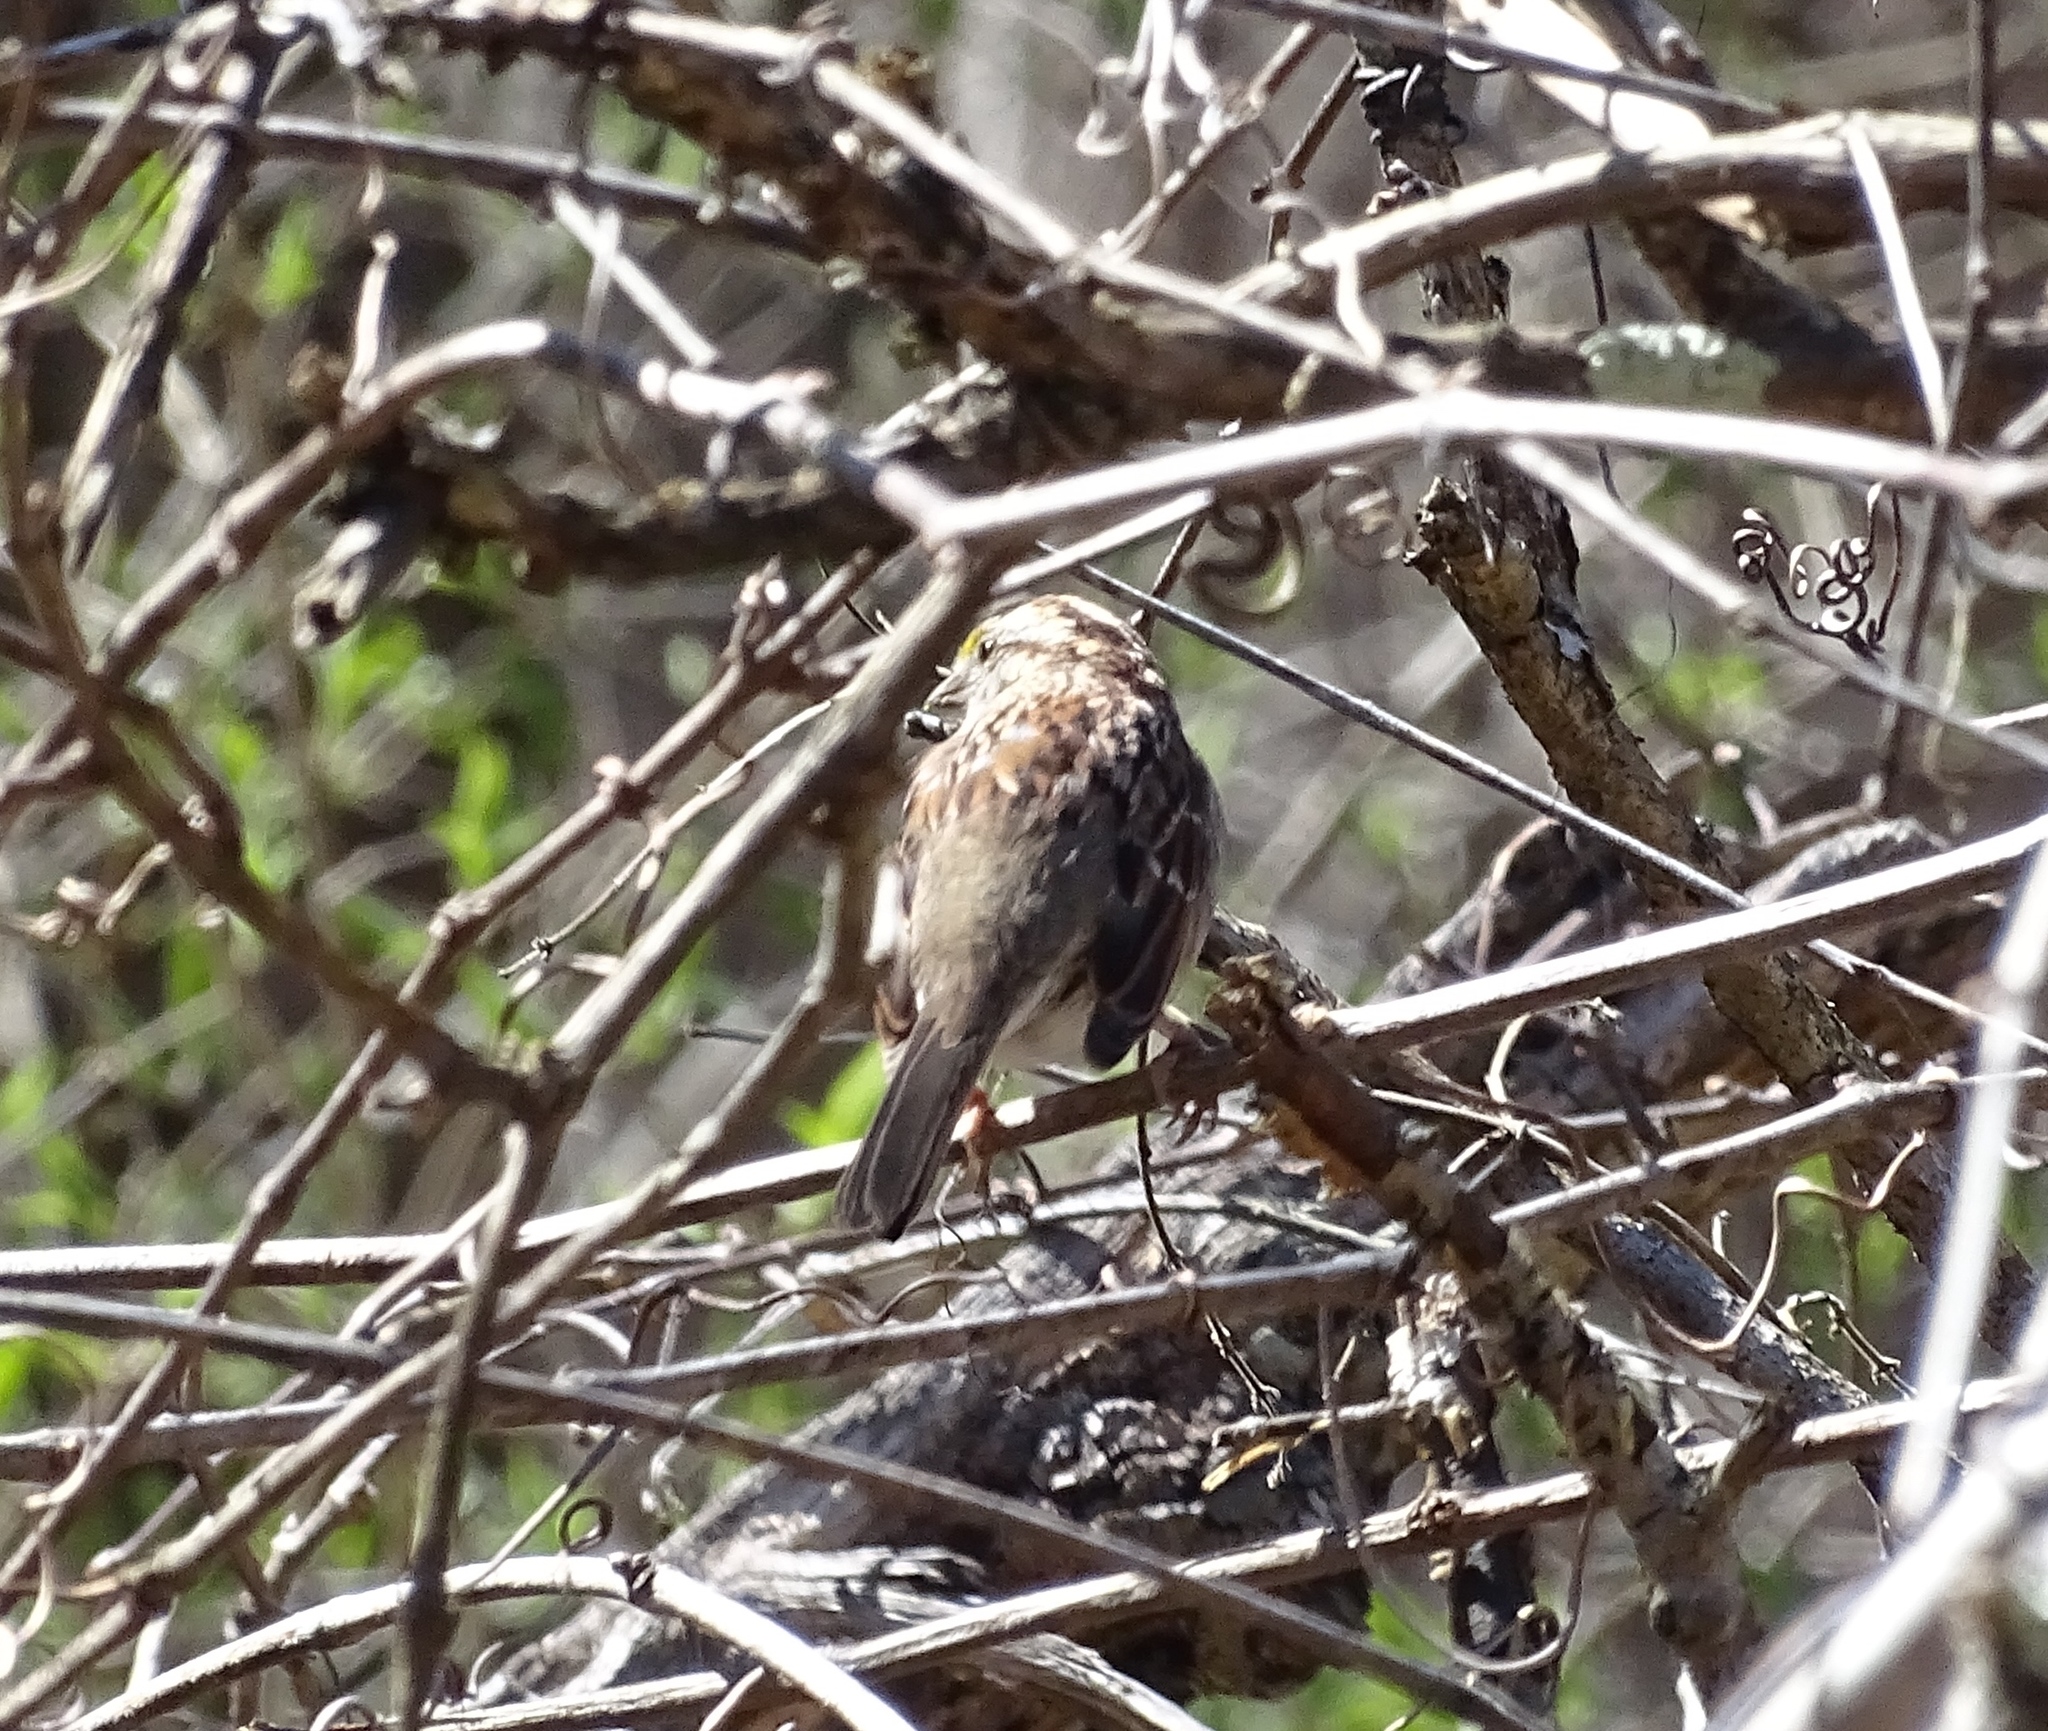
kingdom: Animalia
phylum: Chordata
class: Aves
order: Passeriformes
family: Passerellidae
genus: Zonotrichia
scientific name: Zonotrichia albicollis
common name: White-throated sparrow
